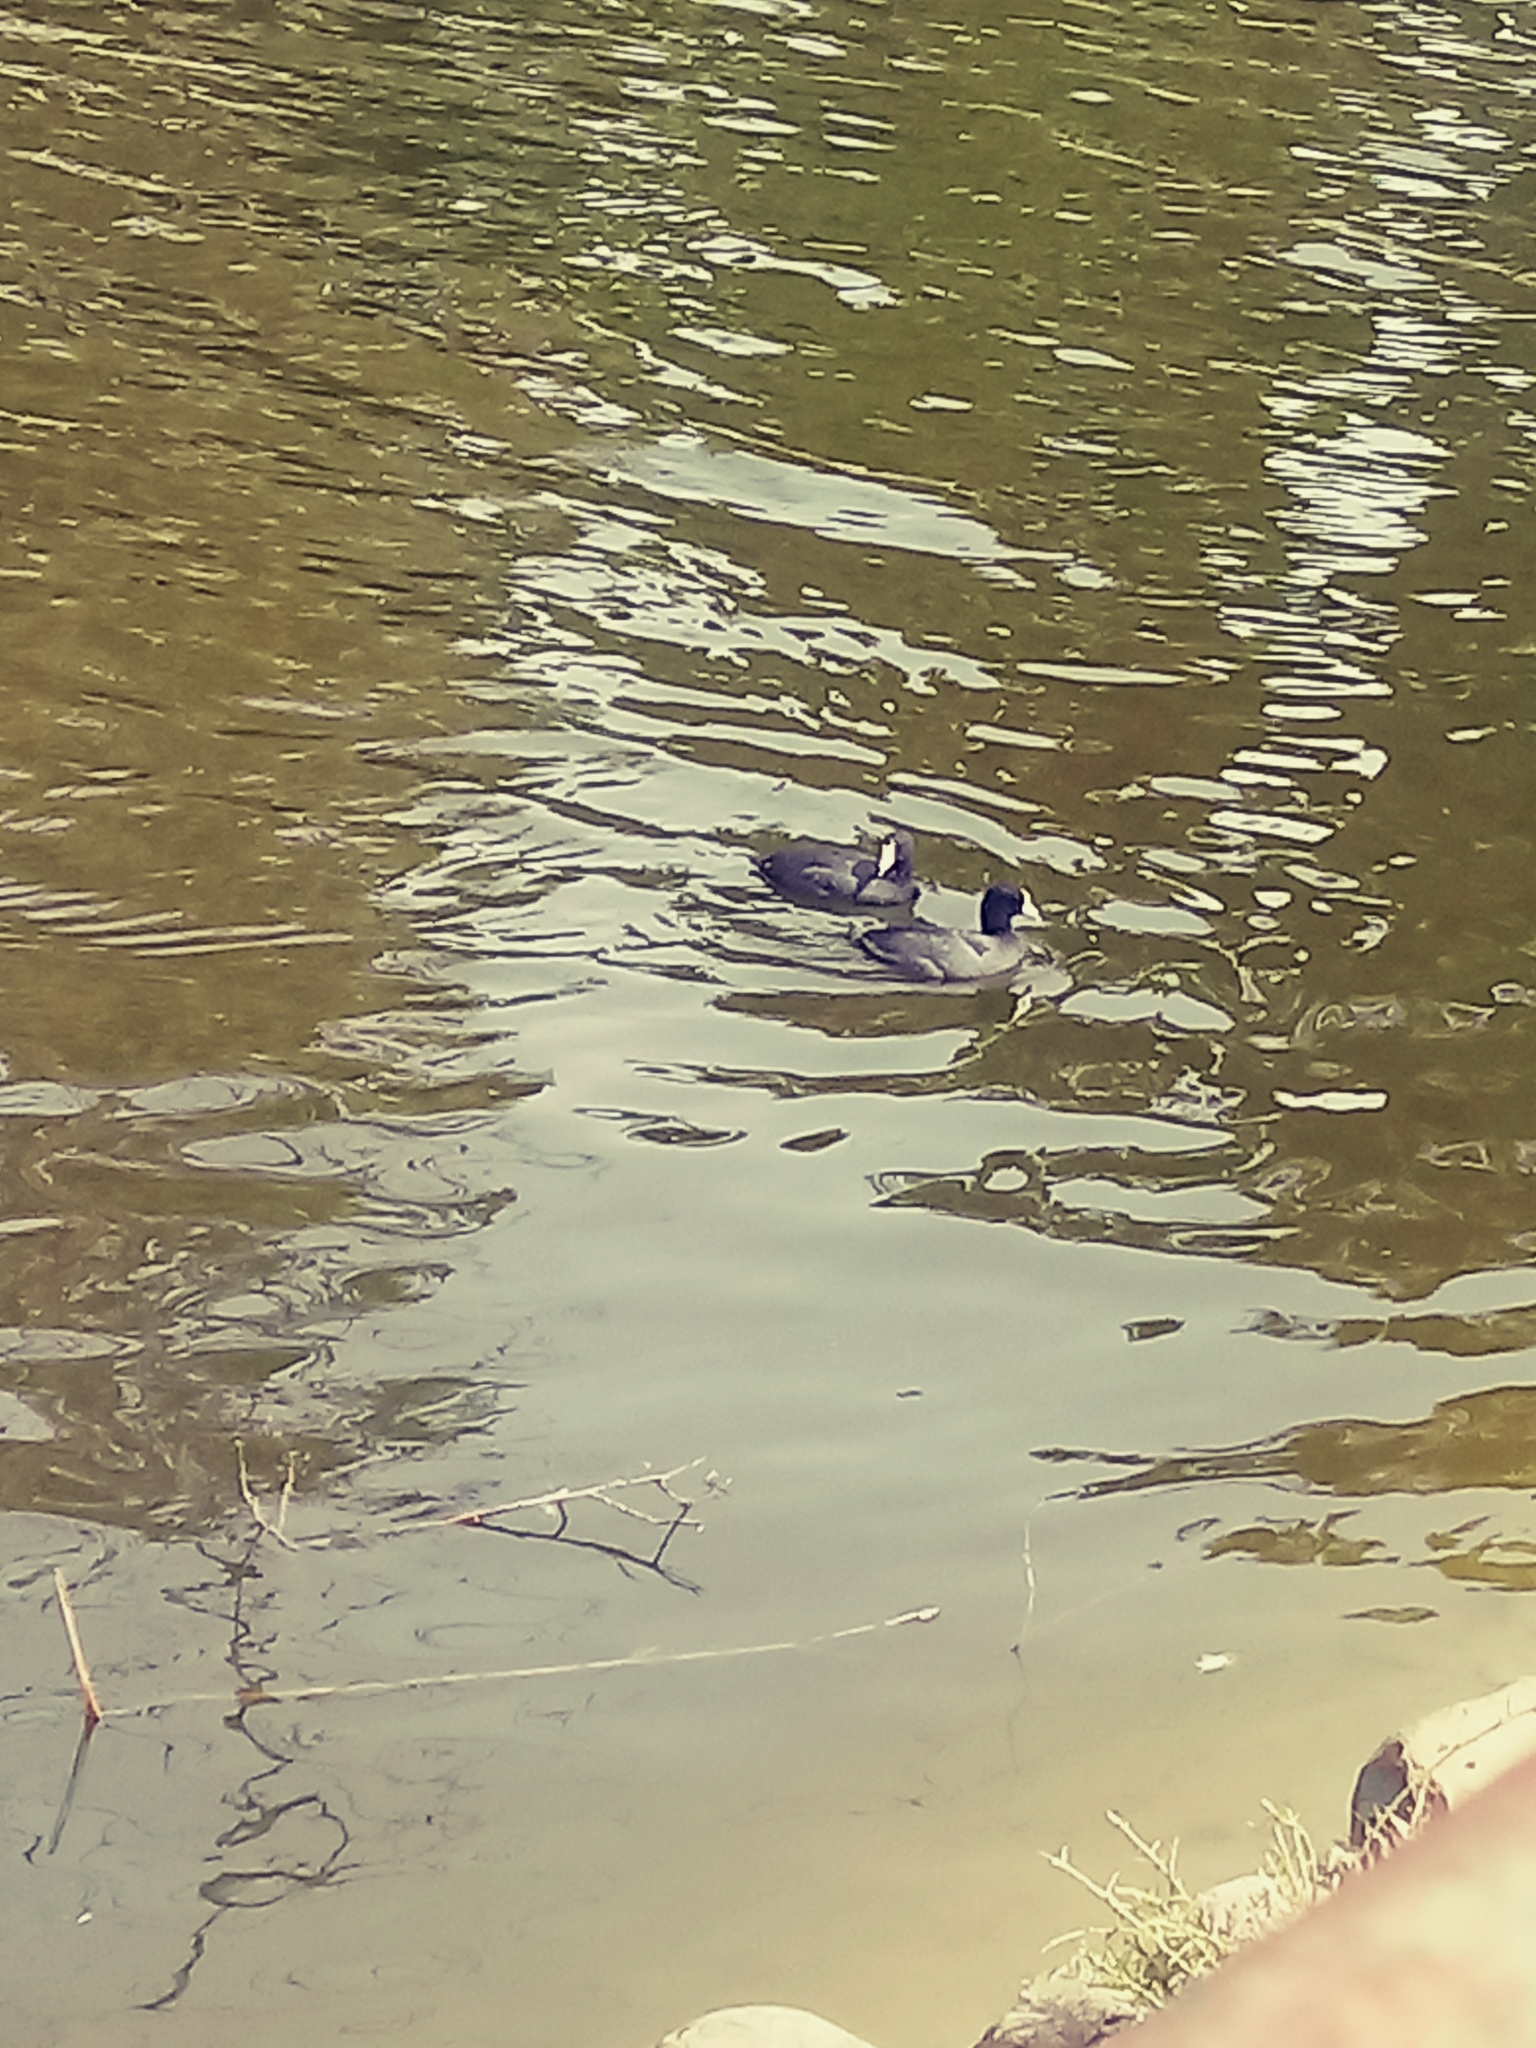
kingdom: Animalia
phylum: Chordata
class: Aves
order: Gruiformes
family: Rallidae
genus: Fulica
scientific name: Fulica americana
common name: American coot
